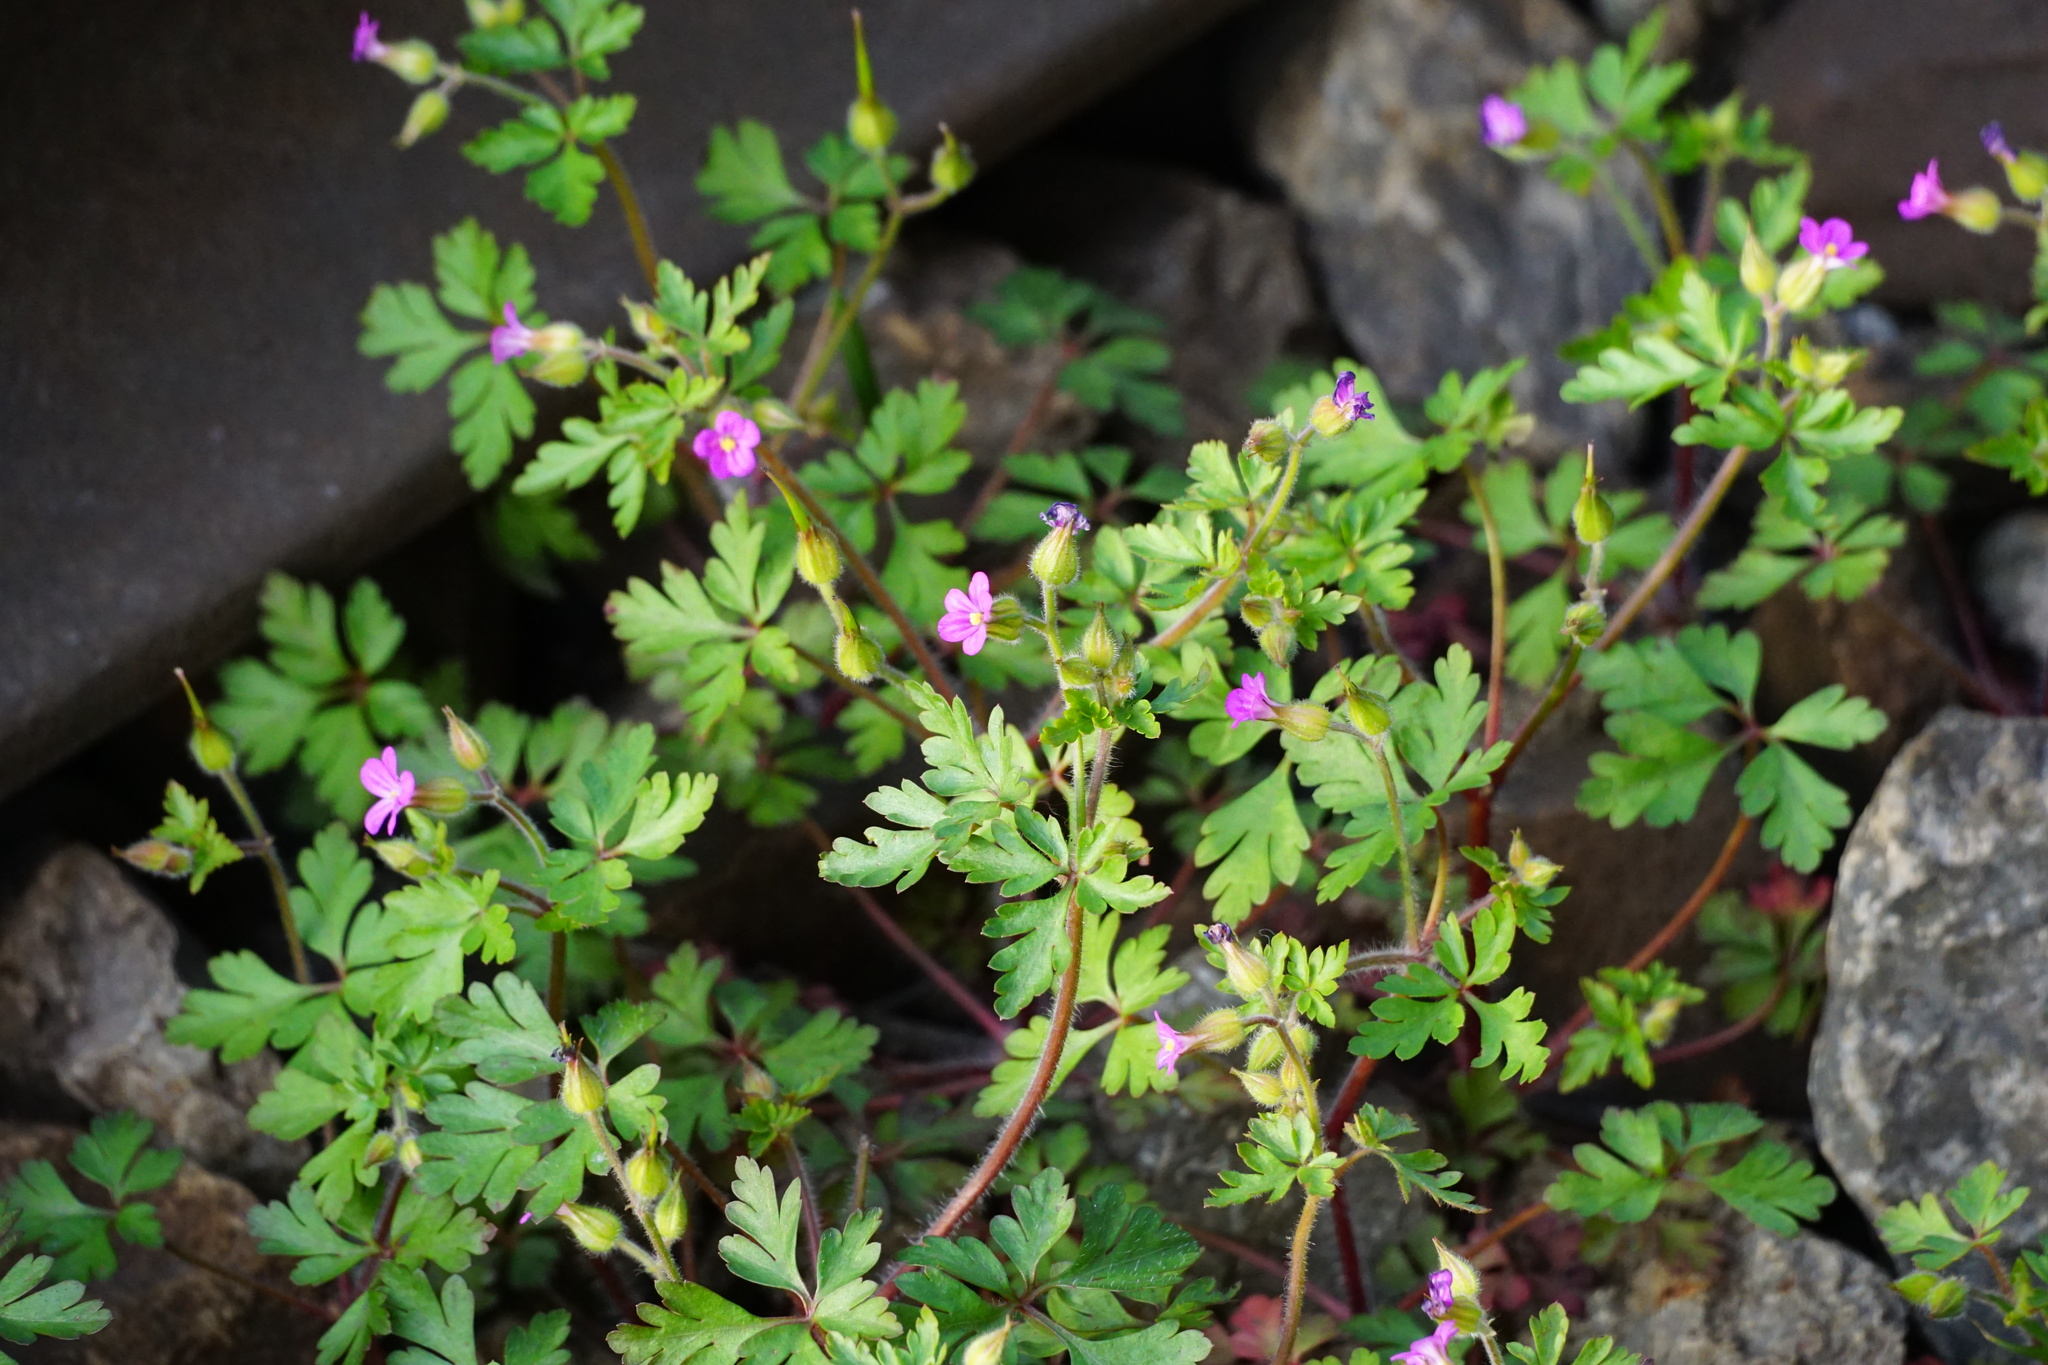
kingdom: Plantae
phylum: Tracheophyta
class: Magnoliopsida
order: Geraniales
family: Geraniaceae
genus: Geranium
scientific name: Geranium purpureum
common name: Little-robin
